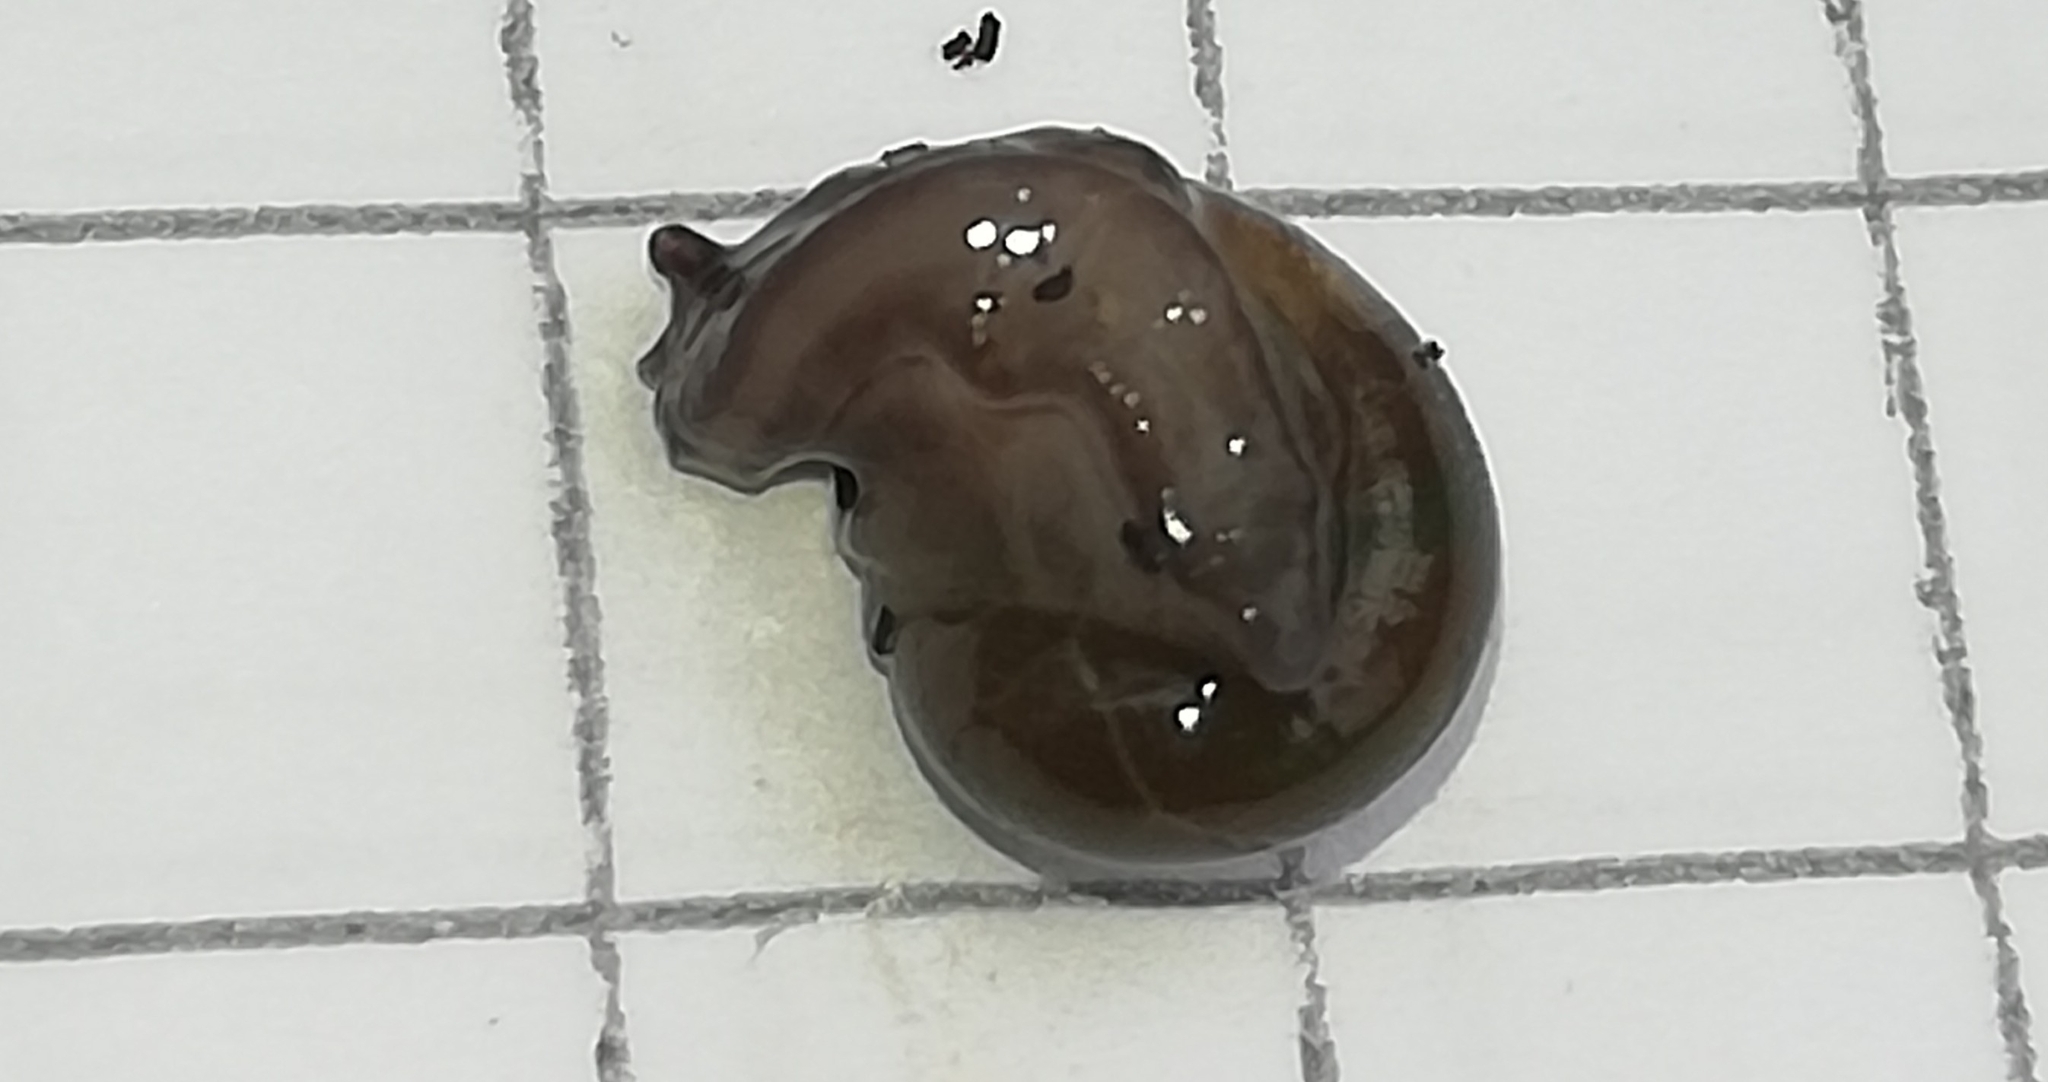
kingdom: Animalia
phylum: Mollusca
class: Gastropoda
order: Stylommatophora
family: Vitrinidae
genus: Vitrina
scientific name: Vitrina pellucida
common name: Pellucid glass snail
